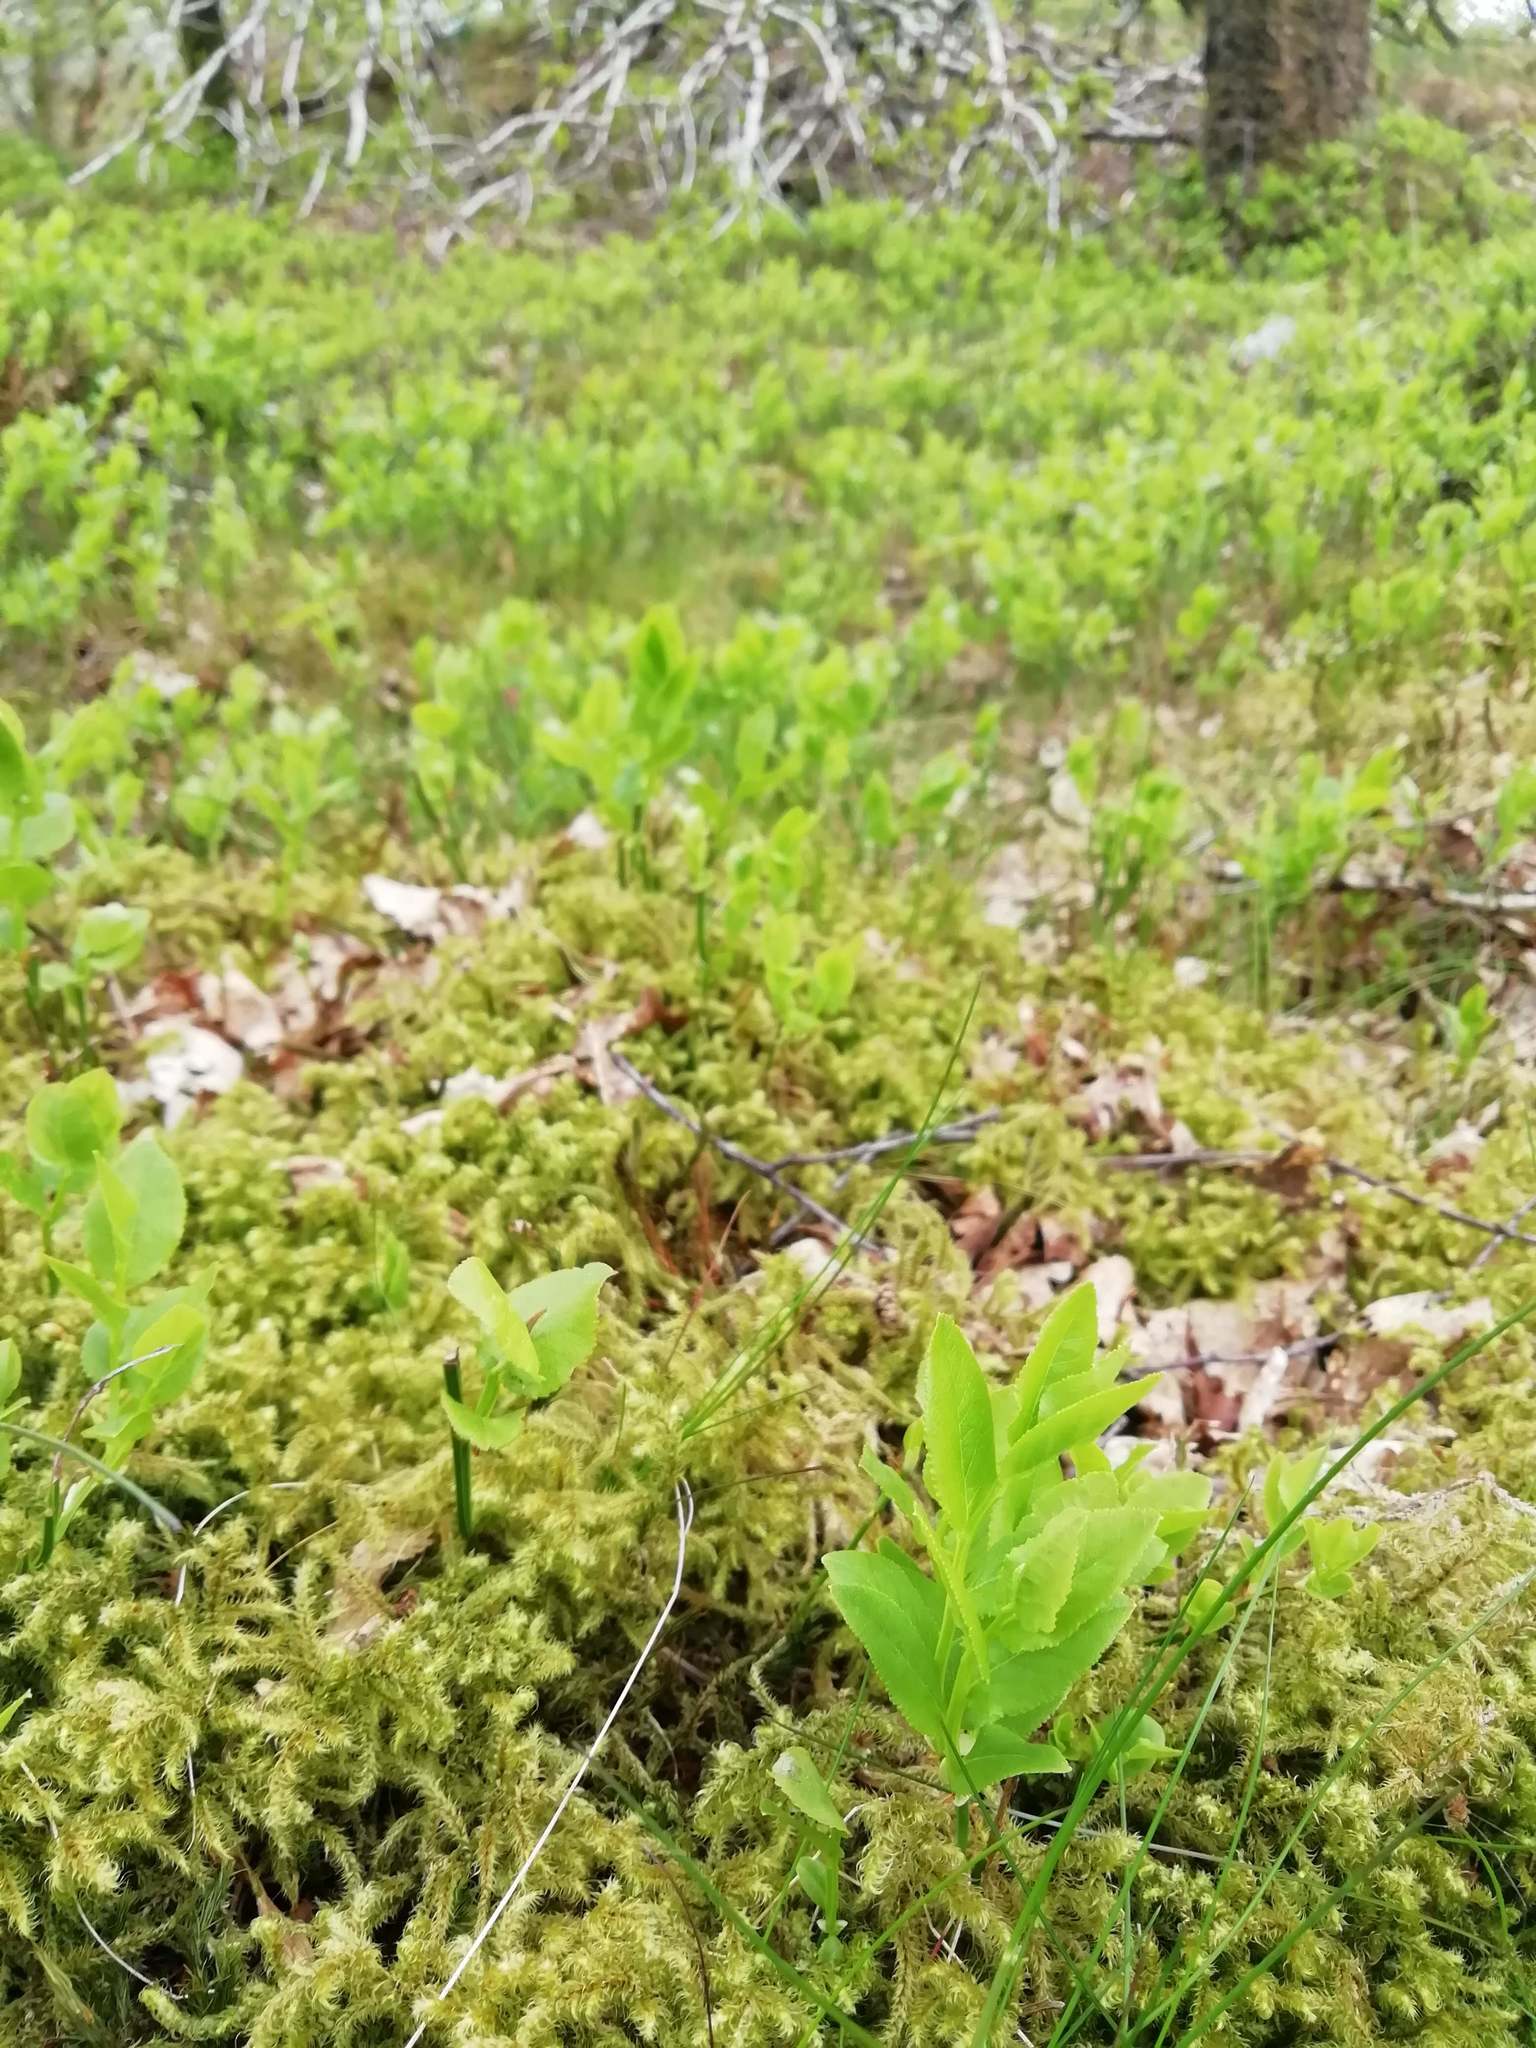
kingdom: Plantae
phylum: Tracheophyta
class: Magnoliopsida
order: Ericales
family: Ericaceae
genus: Vaccinium
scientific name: Vaccinium myrtillus
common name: Bilberry
